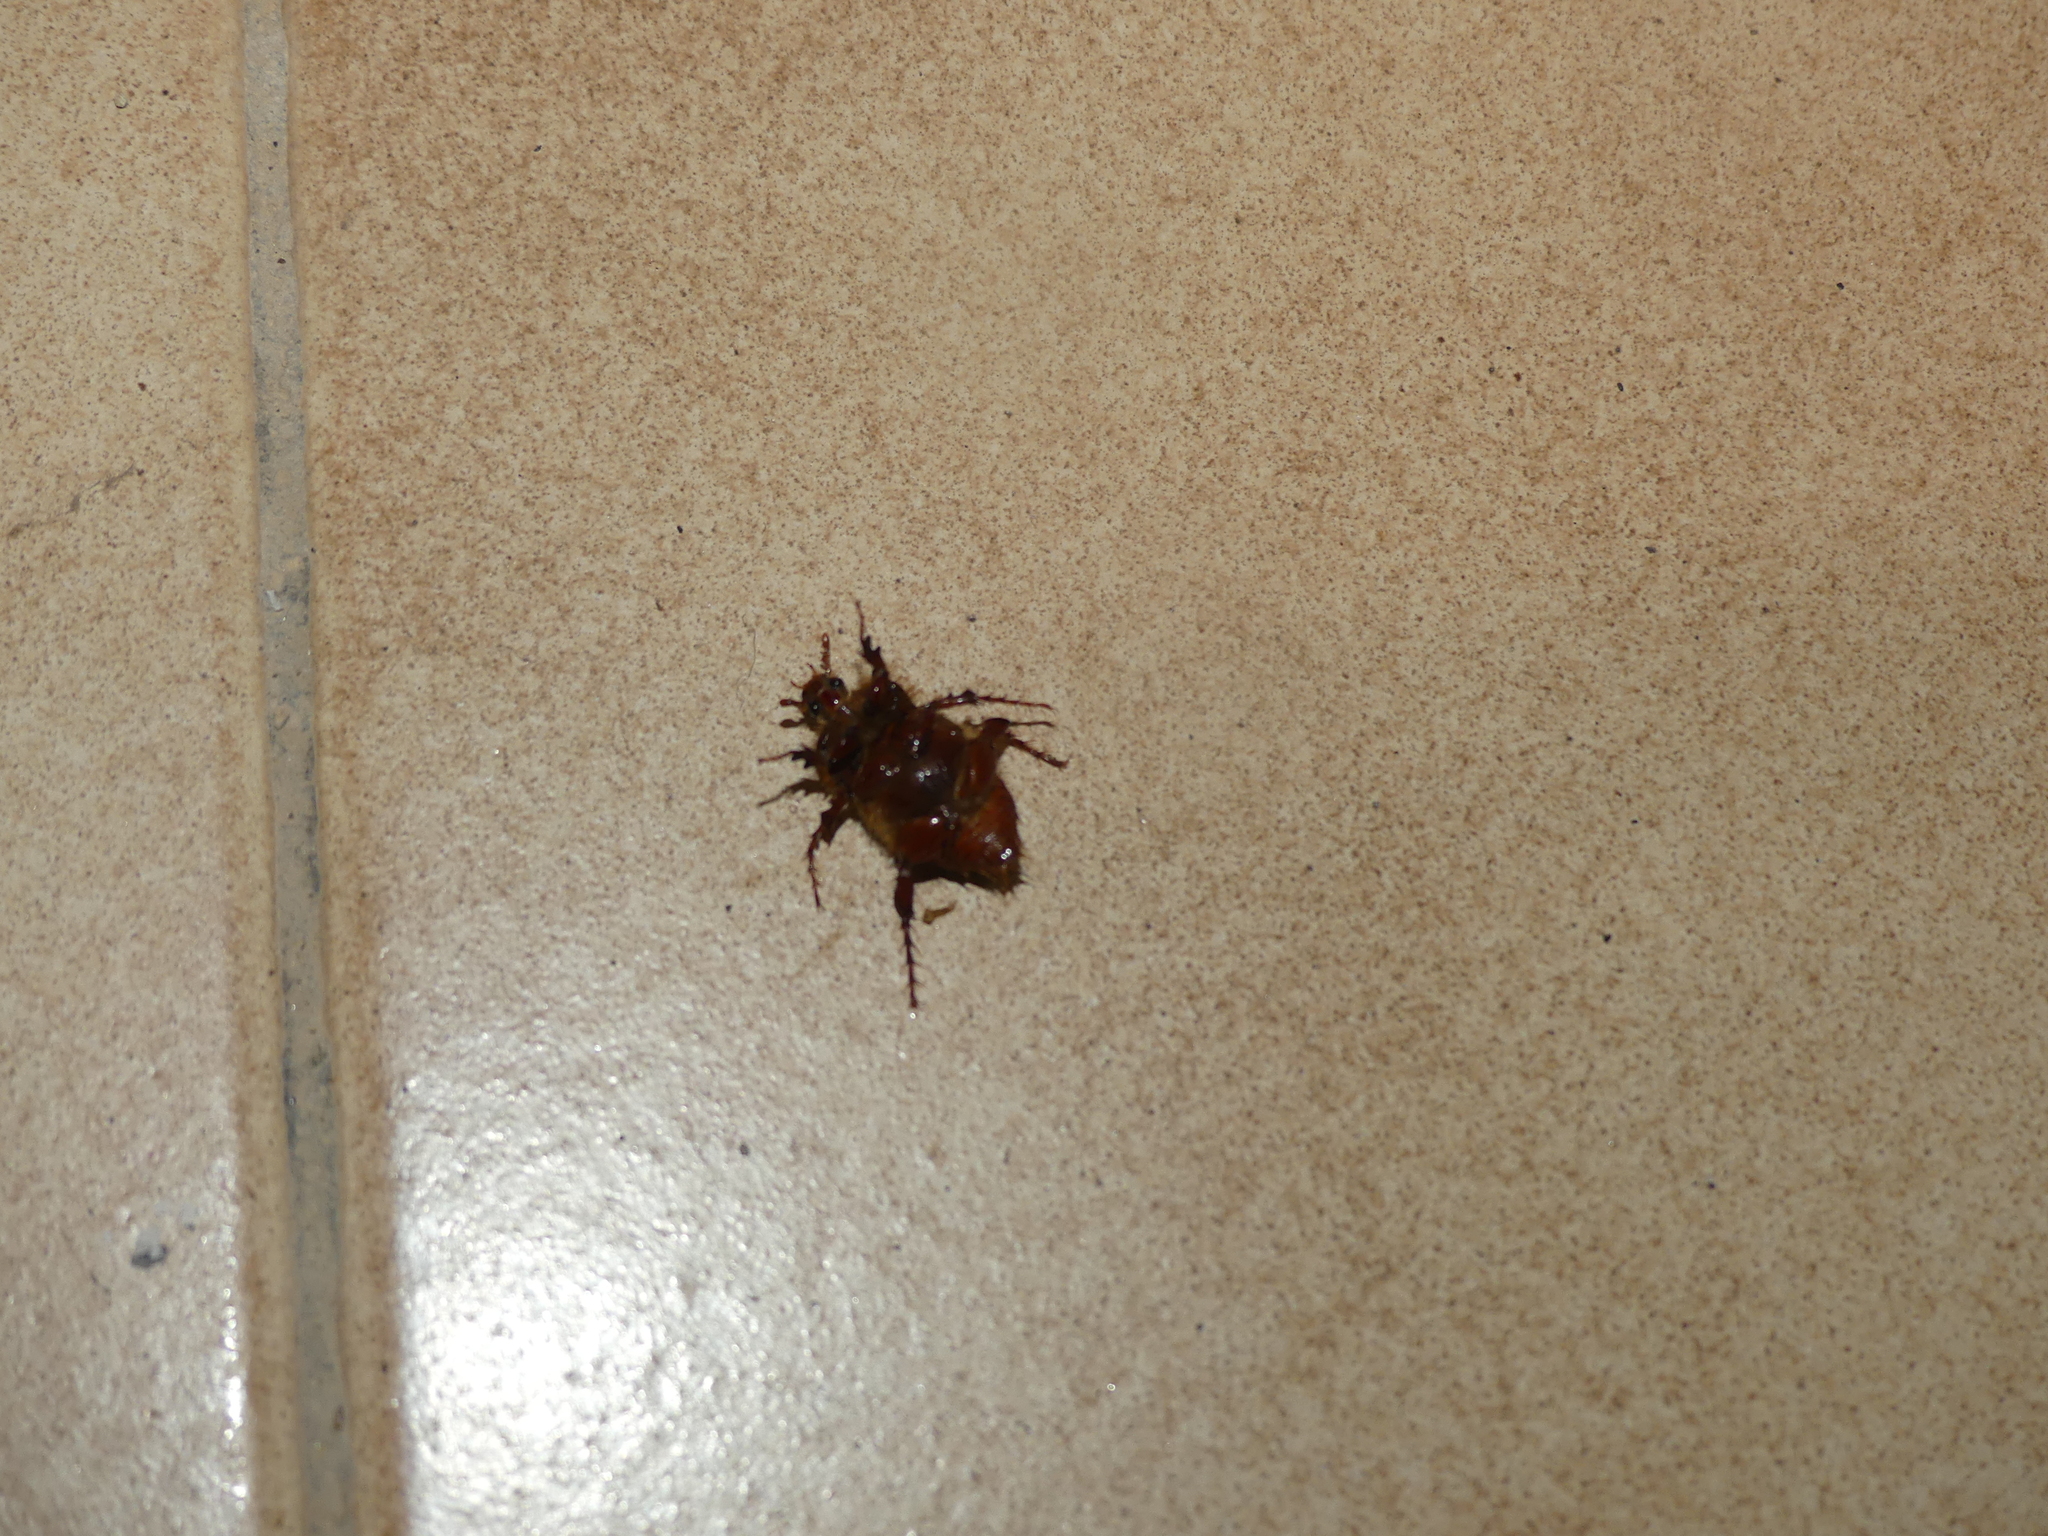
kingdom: Animalia
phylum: Arthropoda
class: Insecta
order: Coleoptera
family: Scarabaeidae
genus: Pachypus
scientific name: Pachypus candidae
